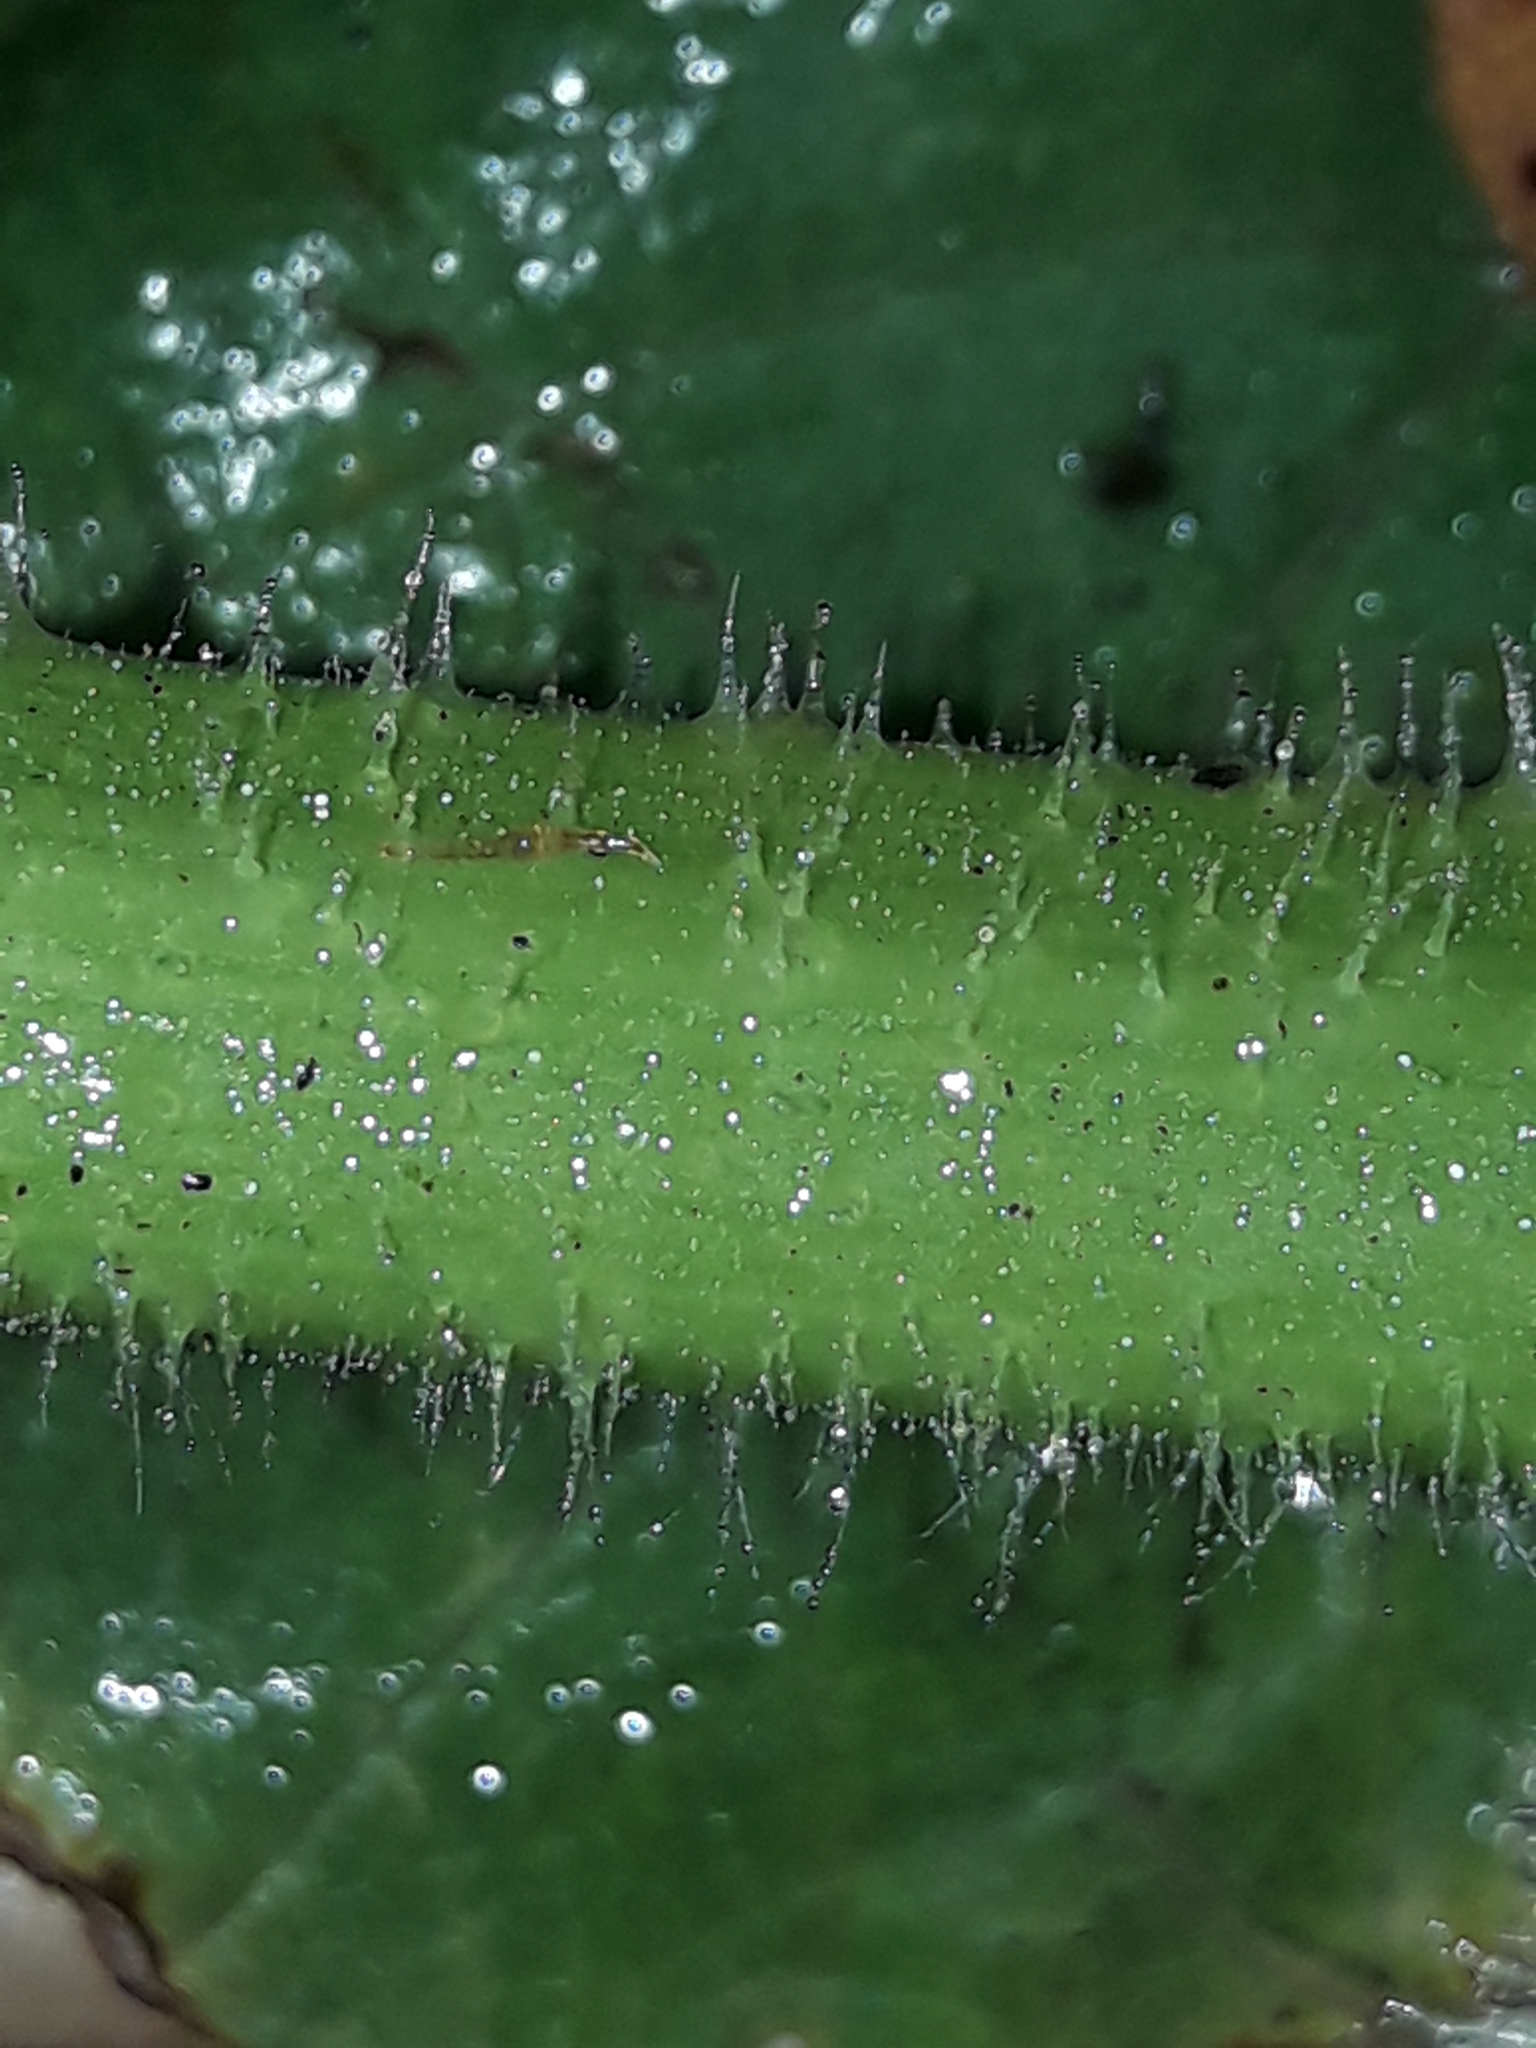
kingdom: Plantae
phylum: Tracheophyta
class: Magnoliopsida
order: Cucurbitales
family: Cucurbitaceae
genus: Cucurbita
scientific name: Cucurbita pepo
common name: Marrow
